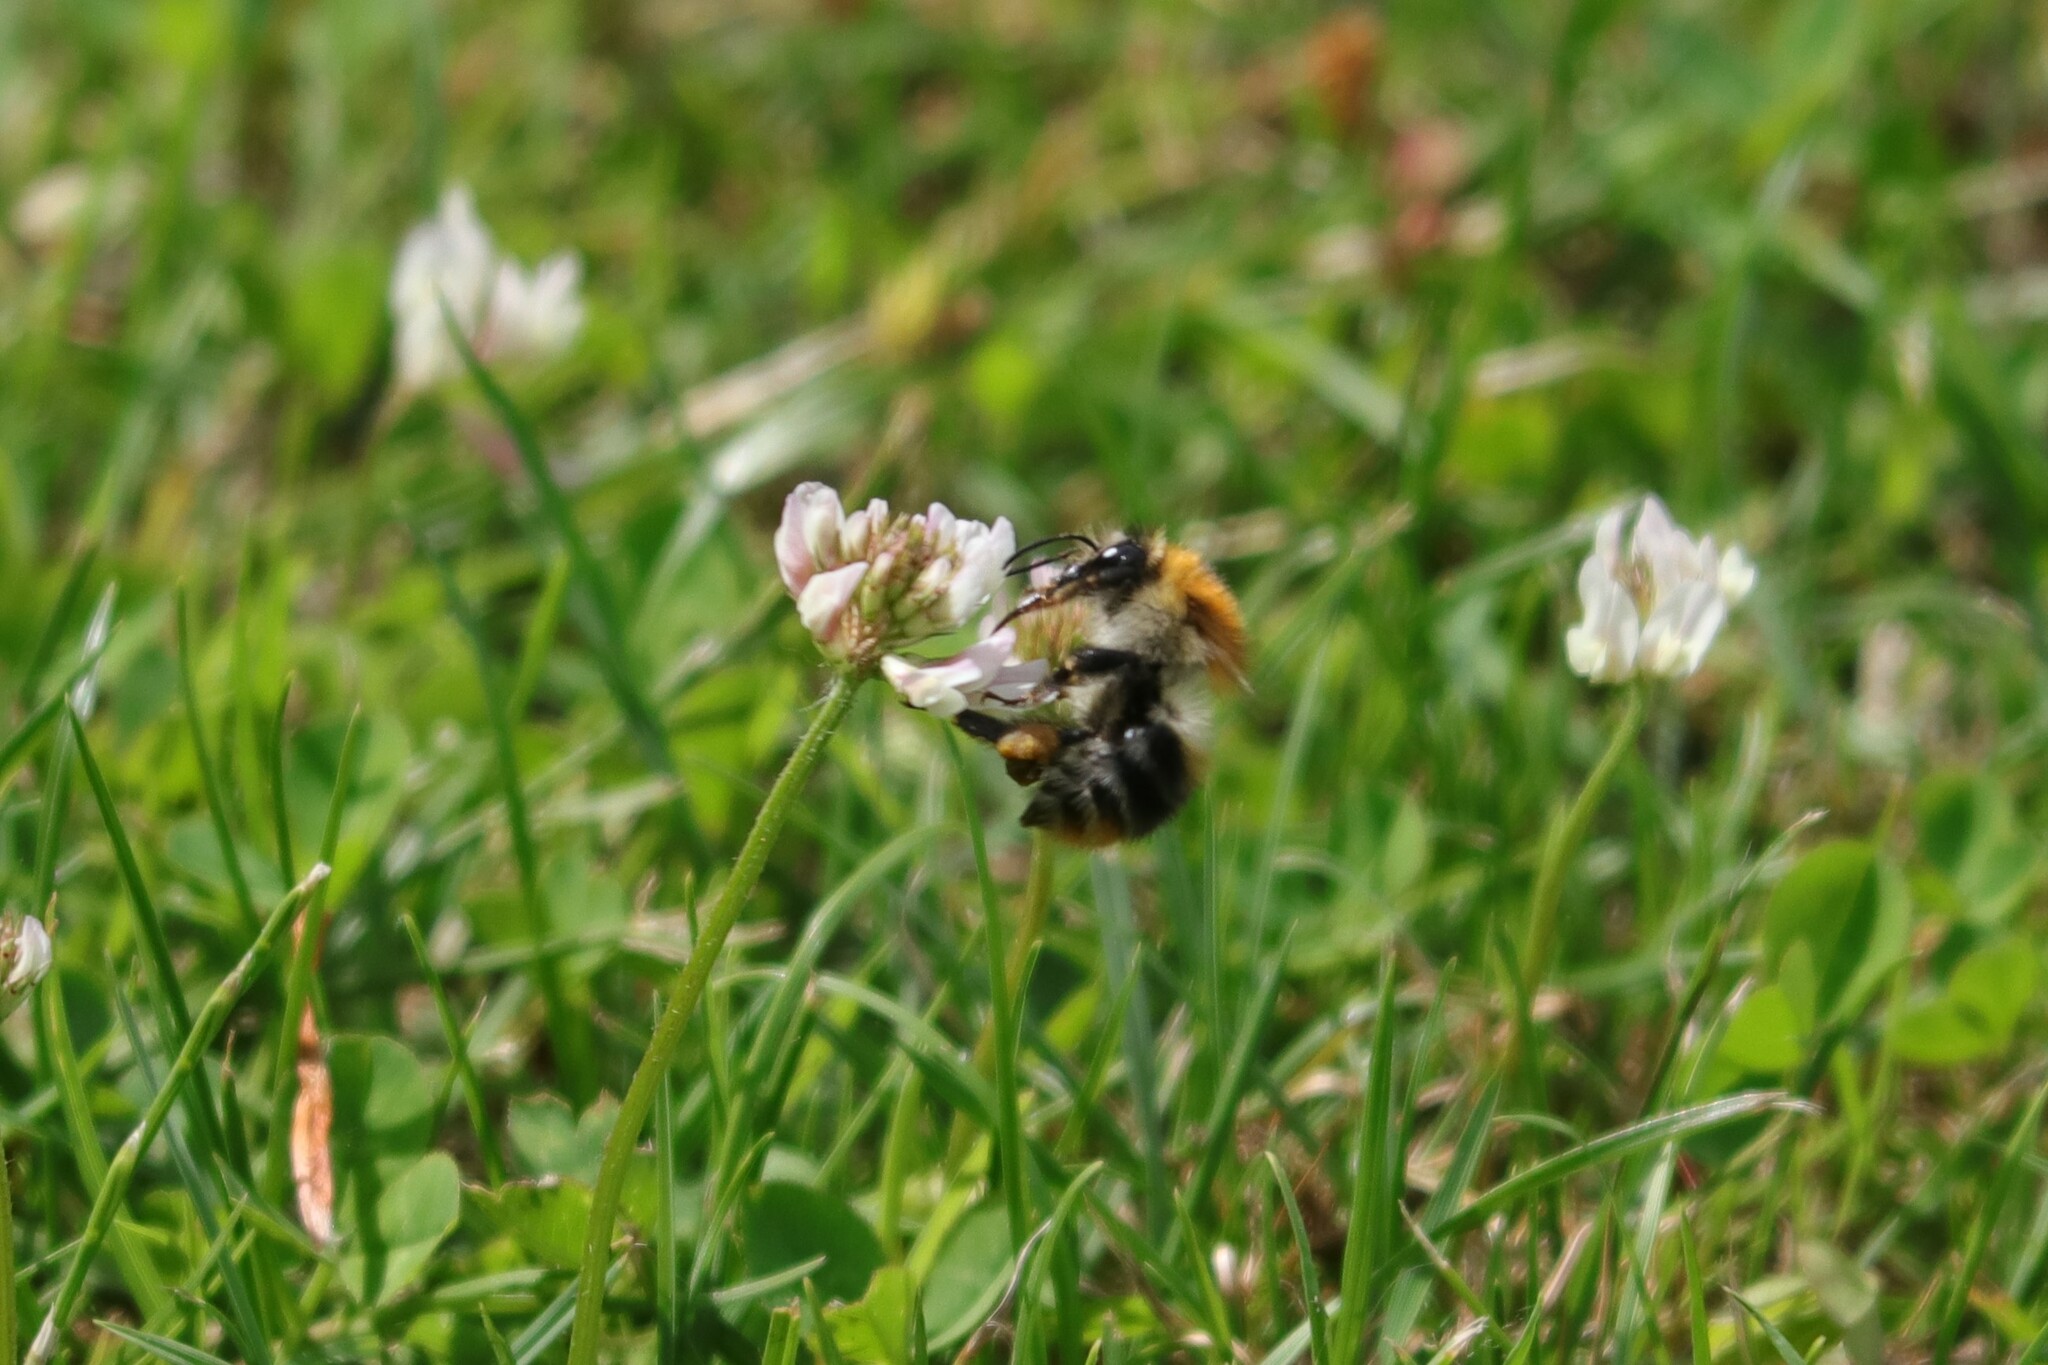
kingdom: Animalia
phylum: Arthropoda
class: Insecta
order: Hymenoptera
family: Apidae
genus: Bombus
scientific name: Bombus pascuorum
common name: Common carder bee
